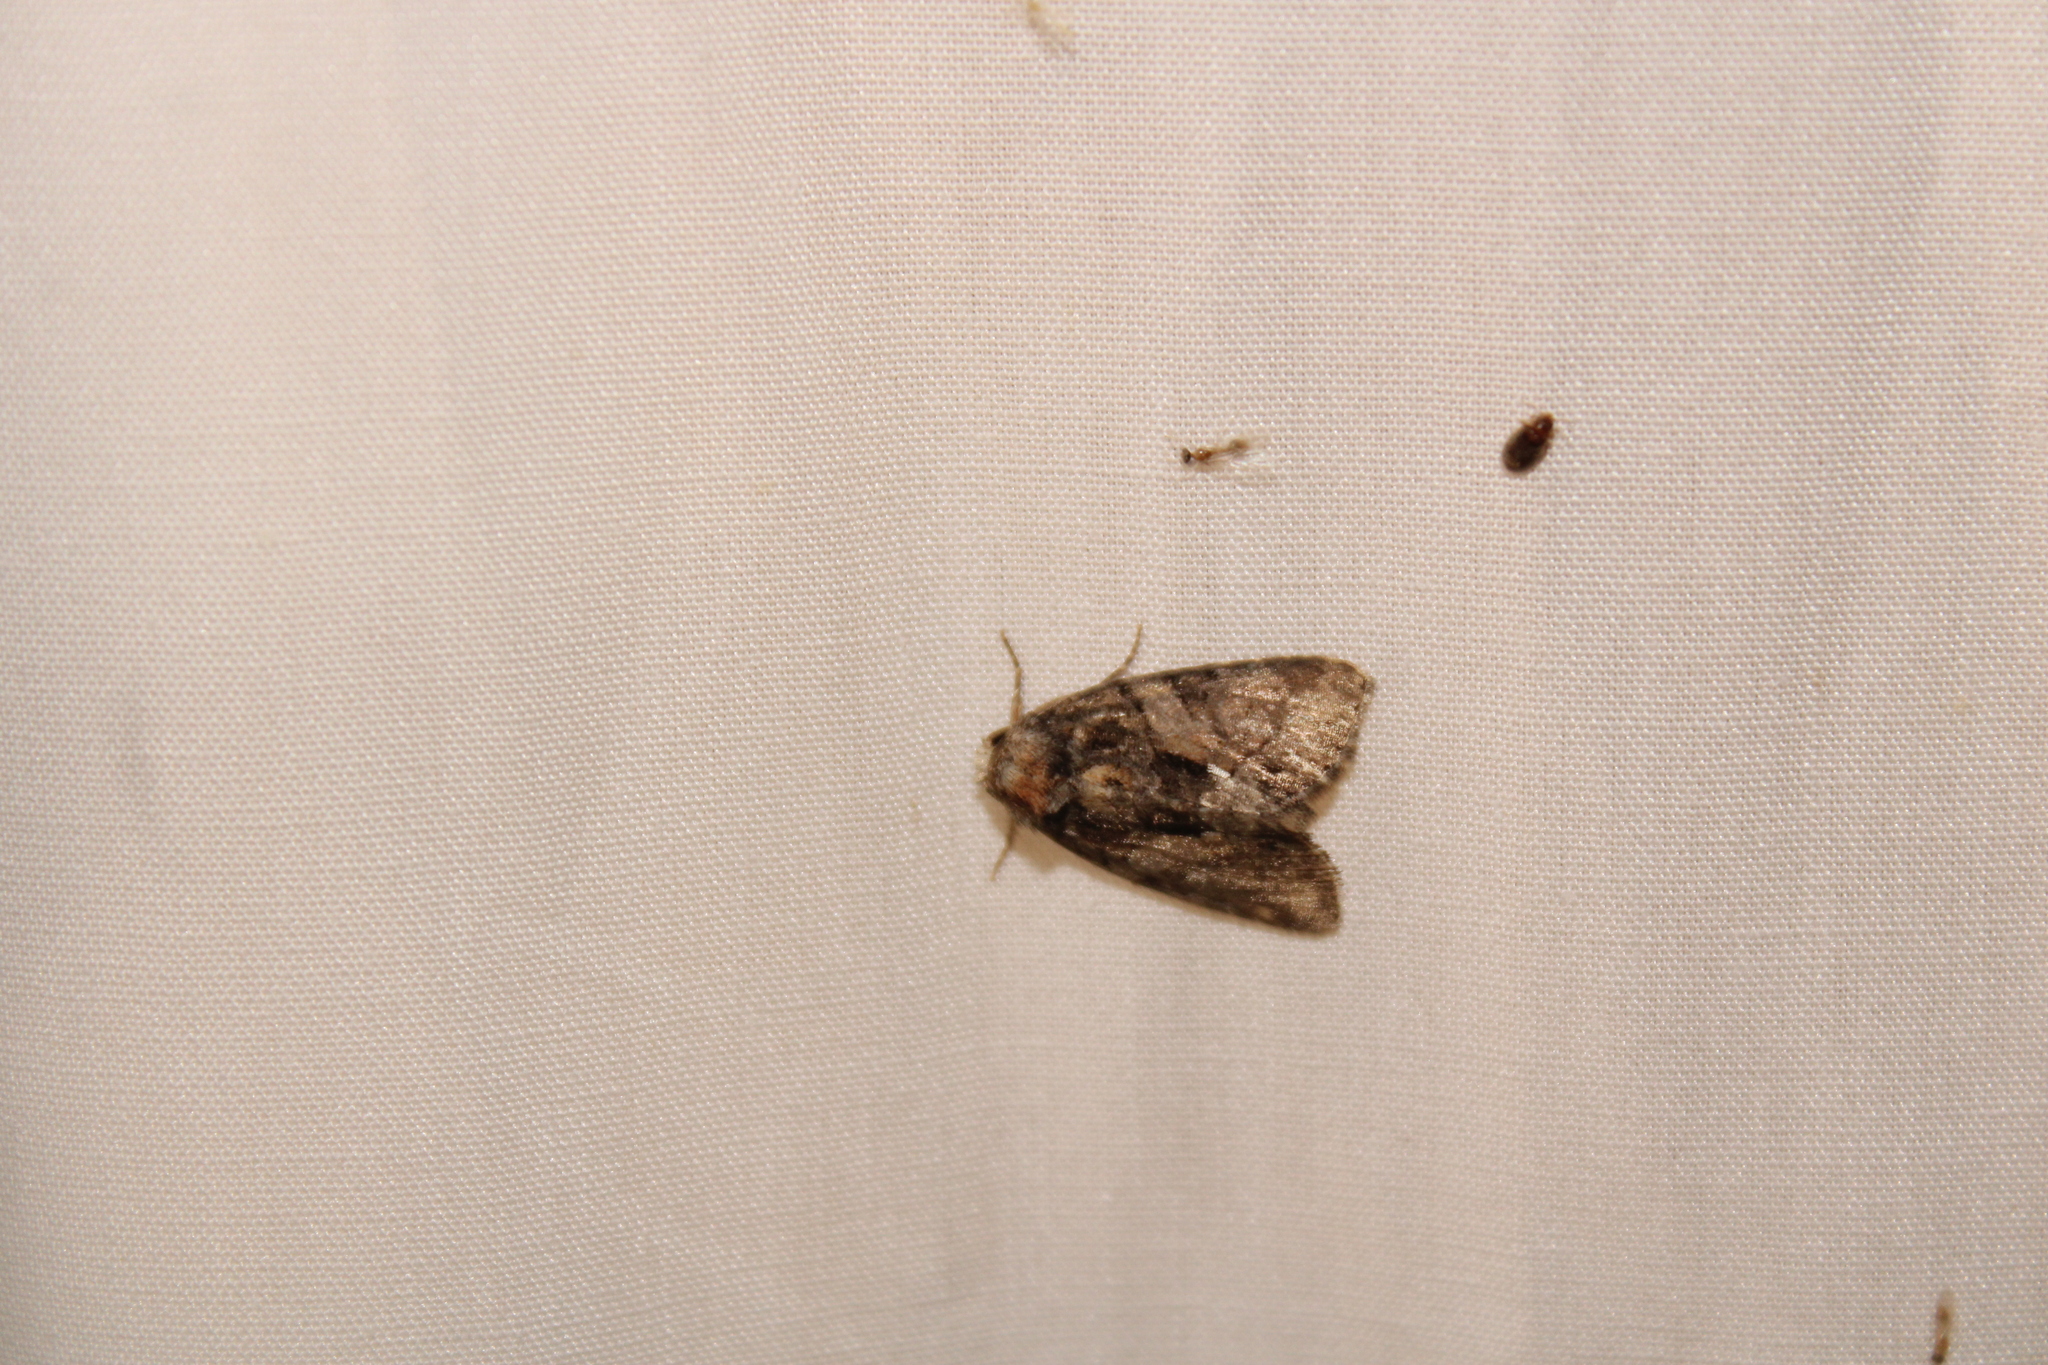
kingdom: Animalia
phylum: Arthropoda
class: Insecta
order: Lepidoptera
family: Noctuidae
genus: Chytonix
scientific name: Chytonix palliatricula
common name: Cloaked marvel
